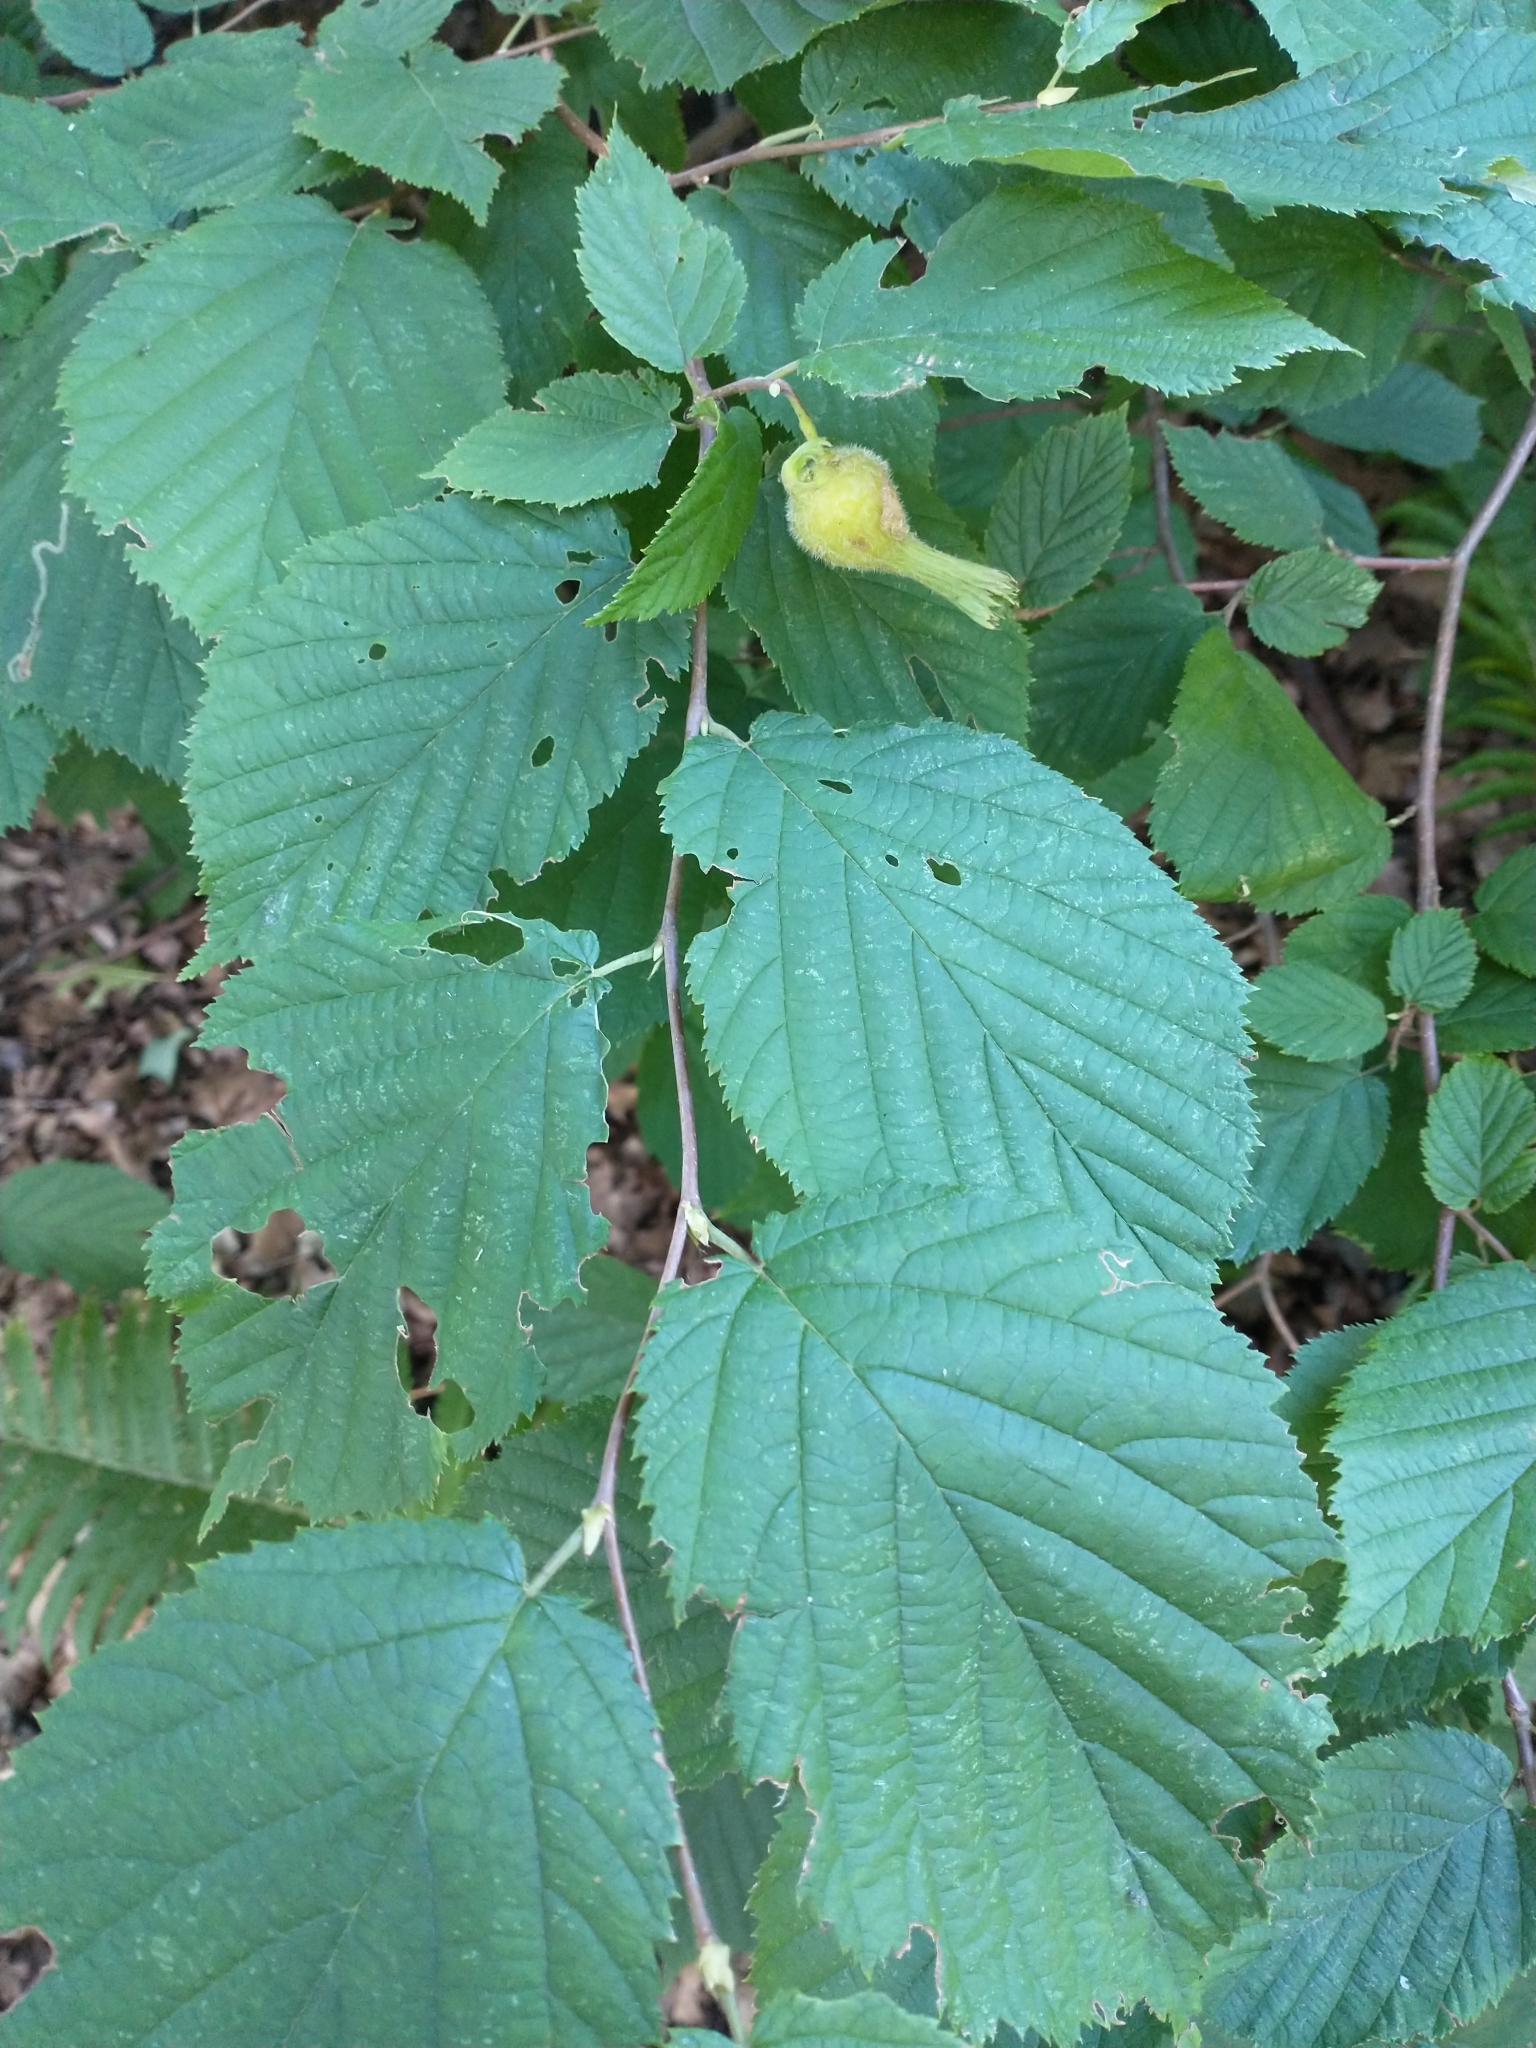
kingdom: Plantae
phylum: Tracheophyta
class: Magnoliopsida
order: Fagales
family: Betulaceae
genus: Corylus
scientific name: Corylus cornuta
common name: Beaked hazel
